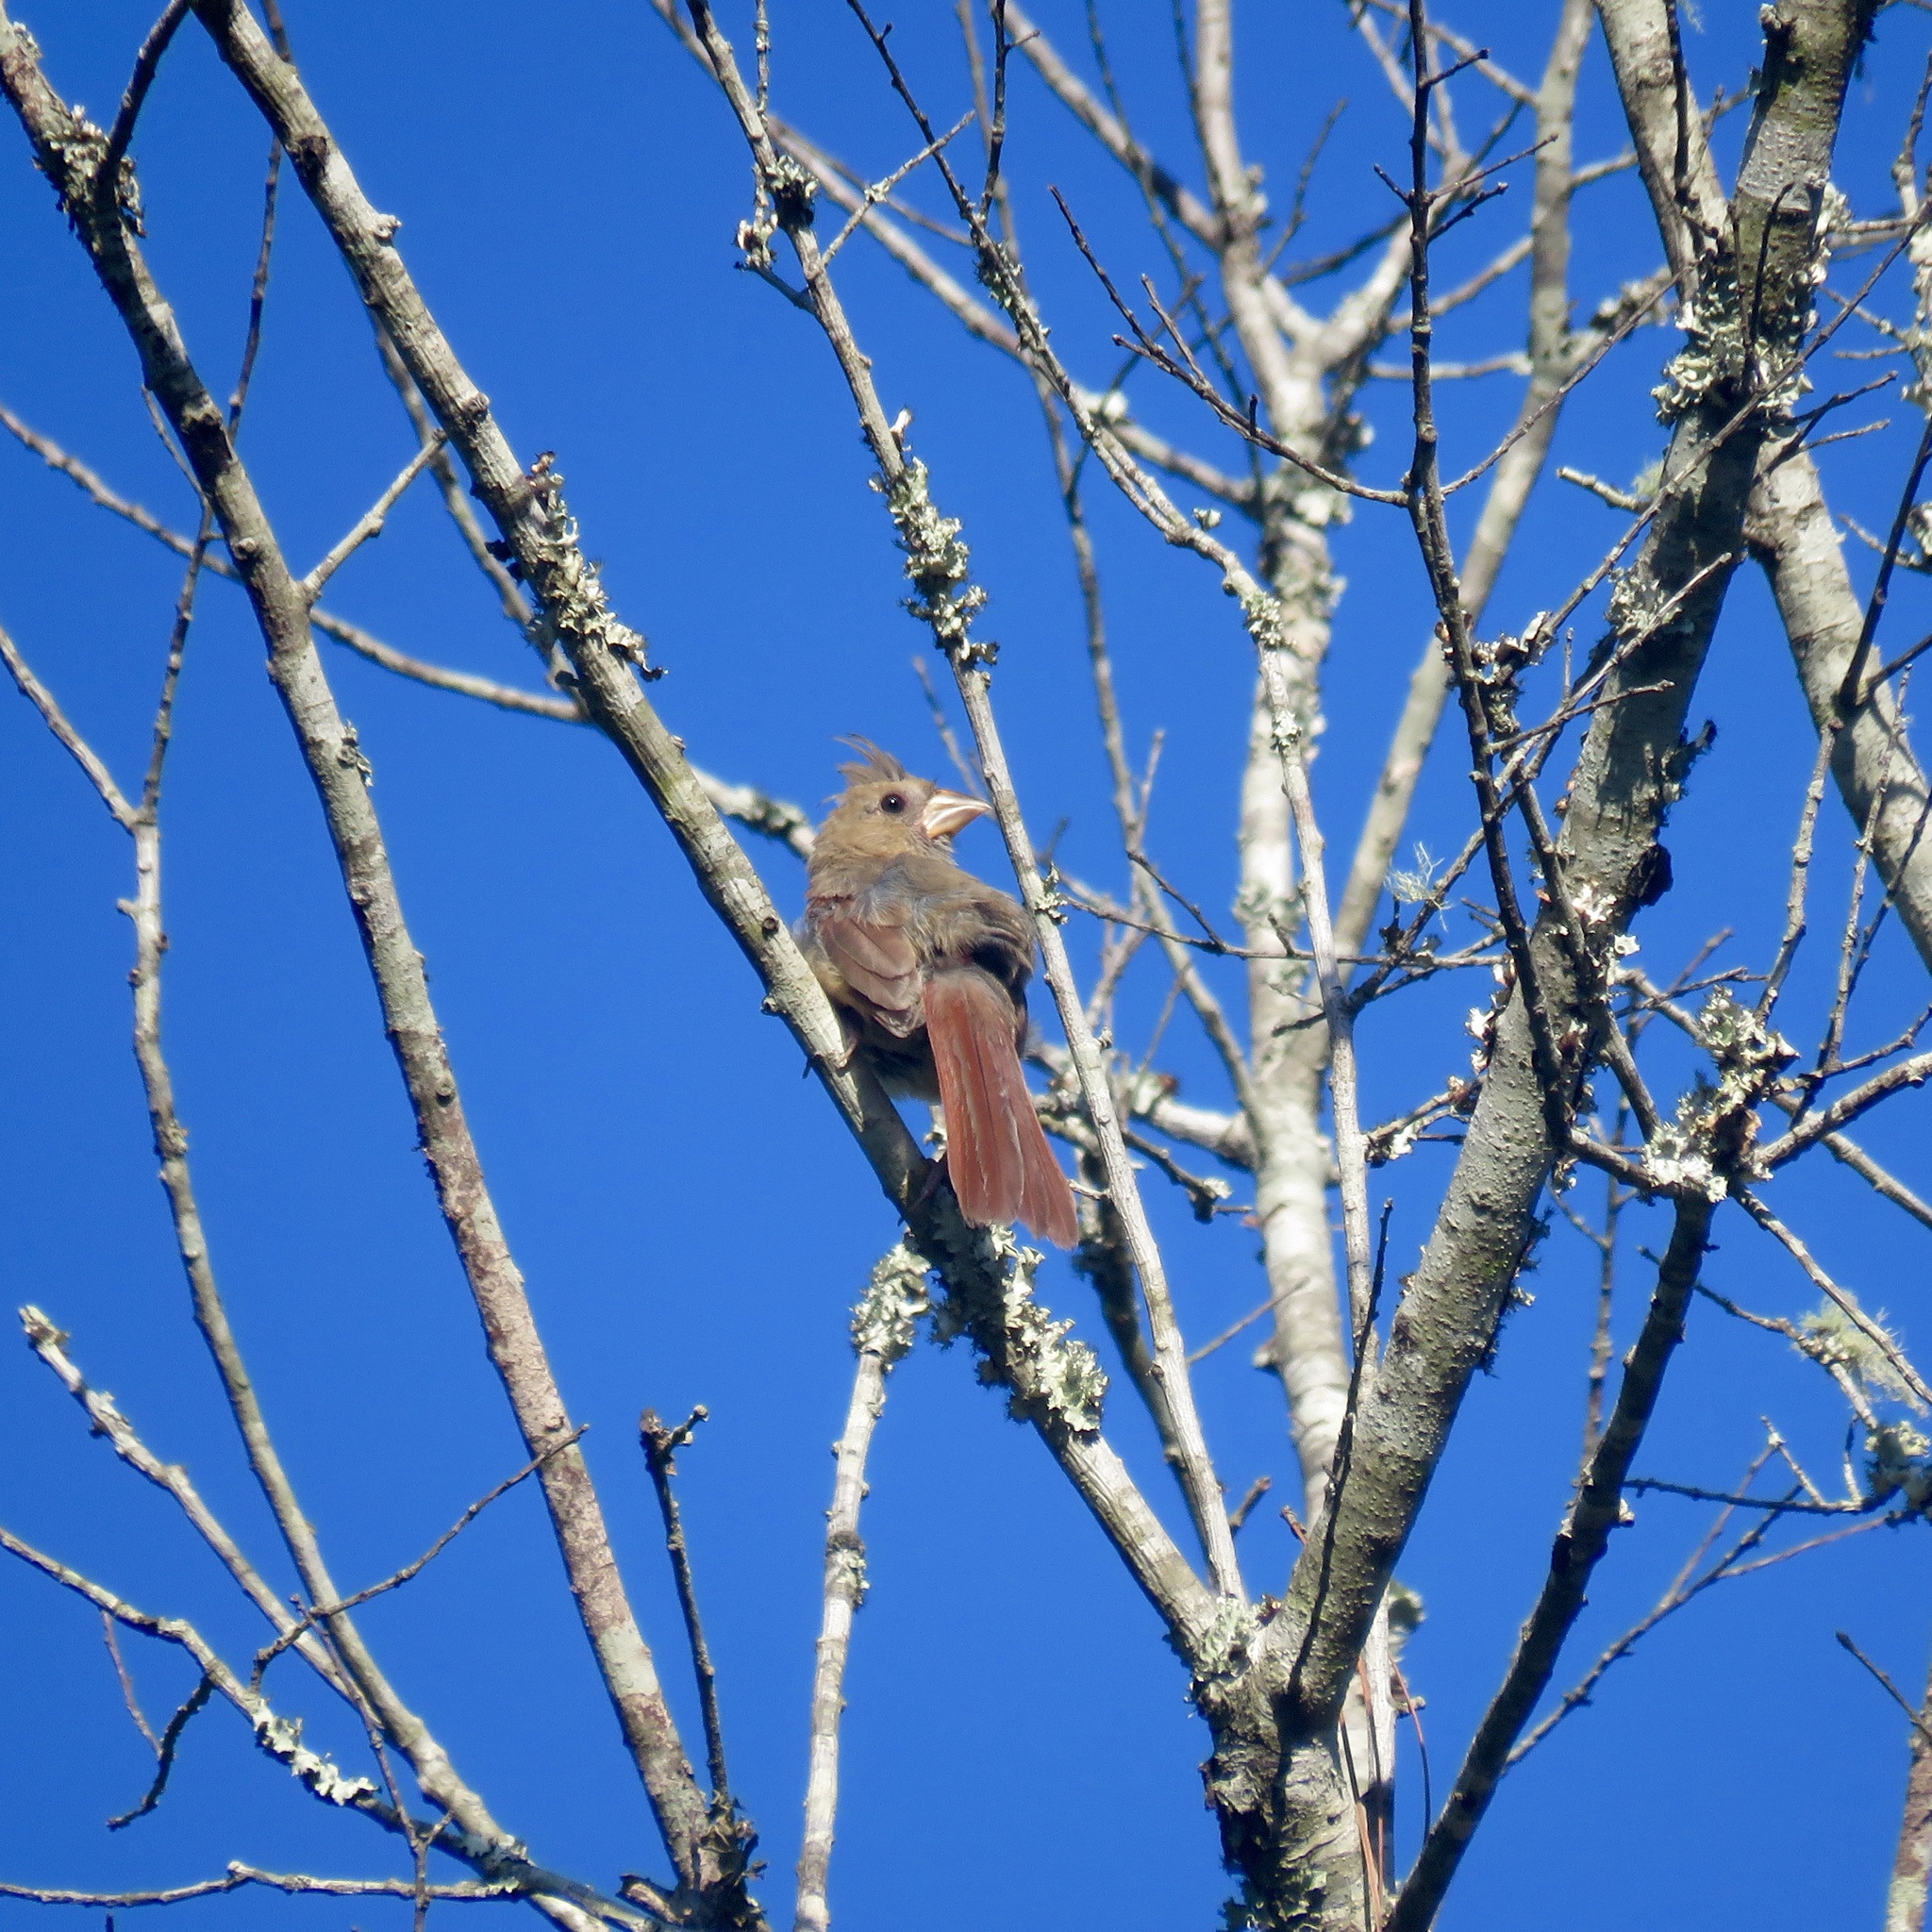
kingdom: Animalia
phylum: Chordata
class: Aves
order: Passeriformes
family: Cardinalidae
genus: Cardinalis
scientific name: Cardinalis cardinalis
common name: Northern cardinal
